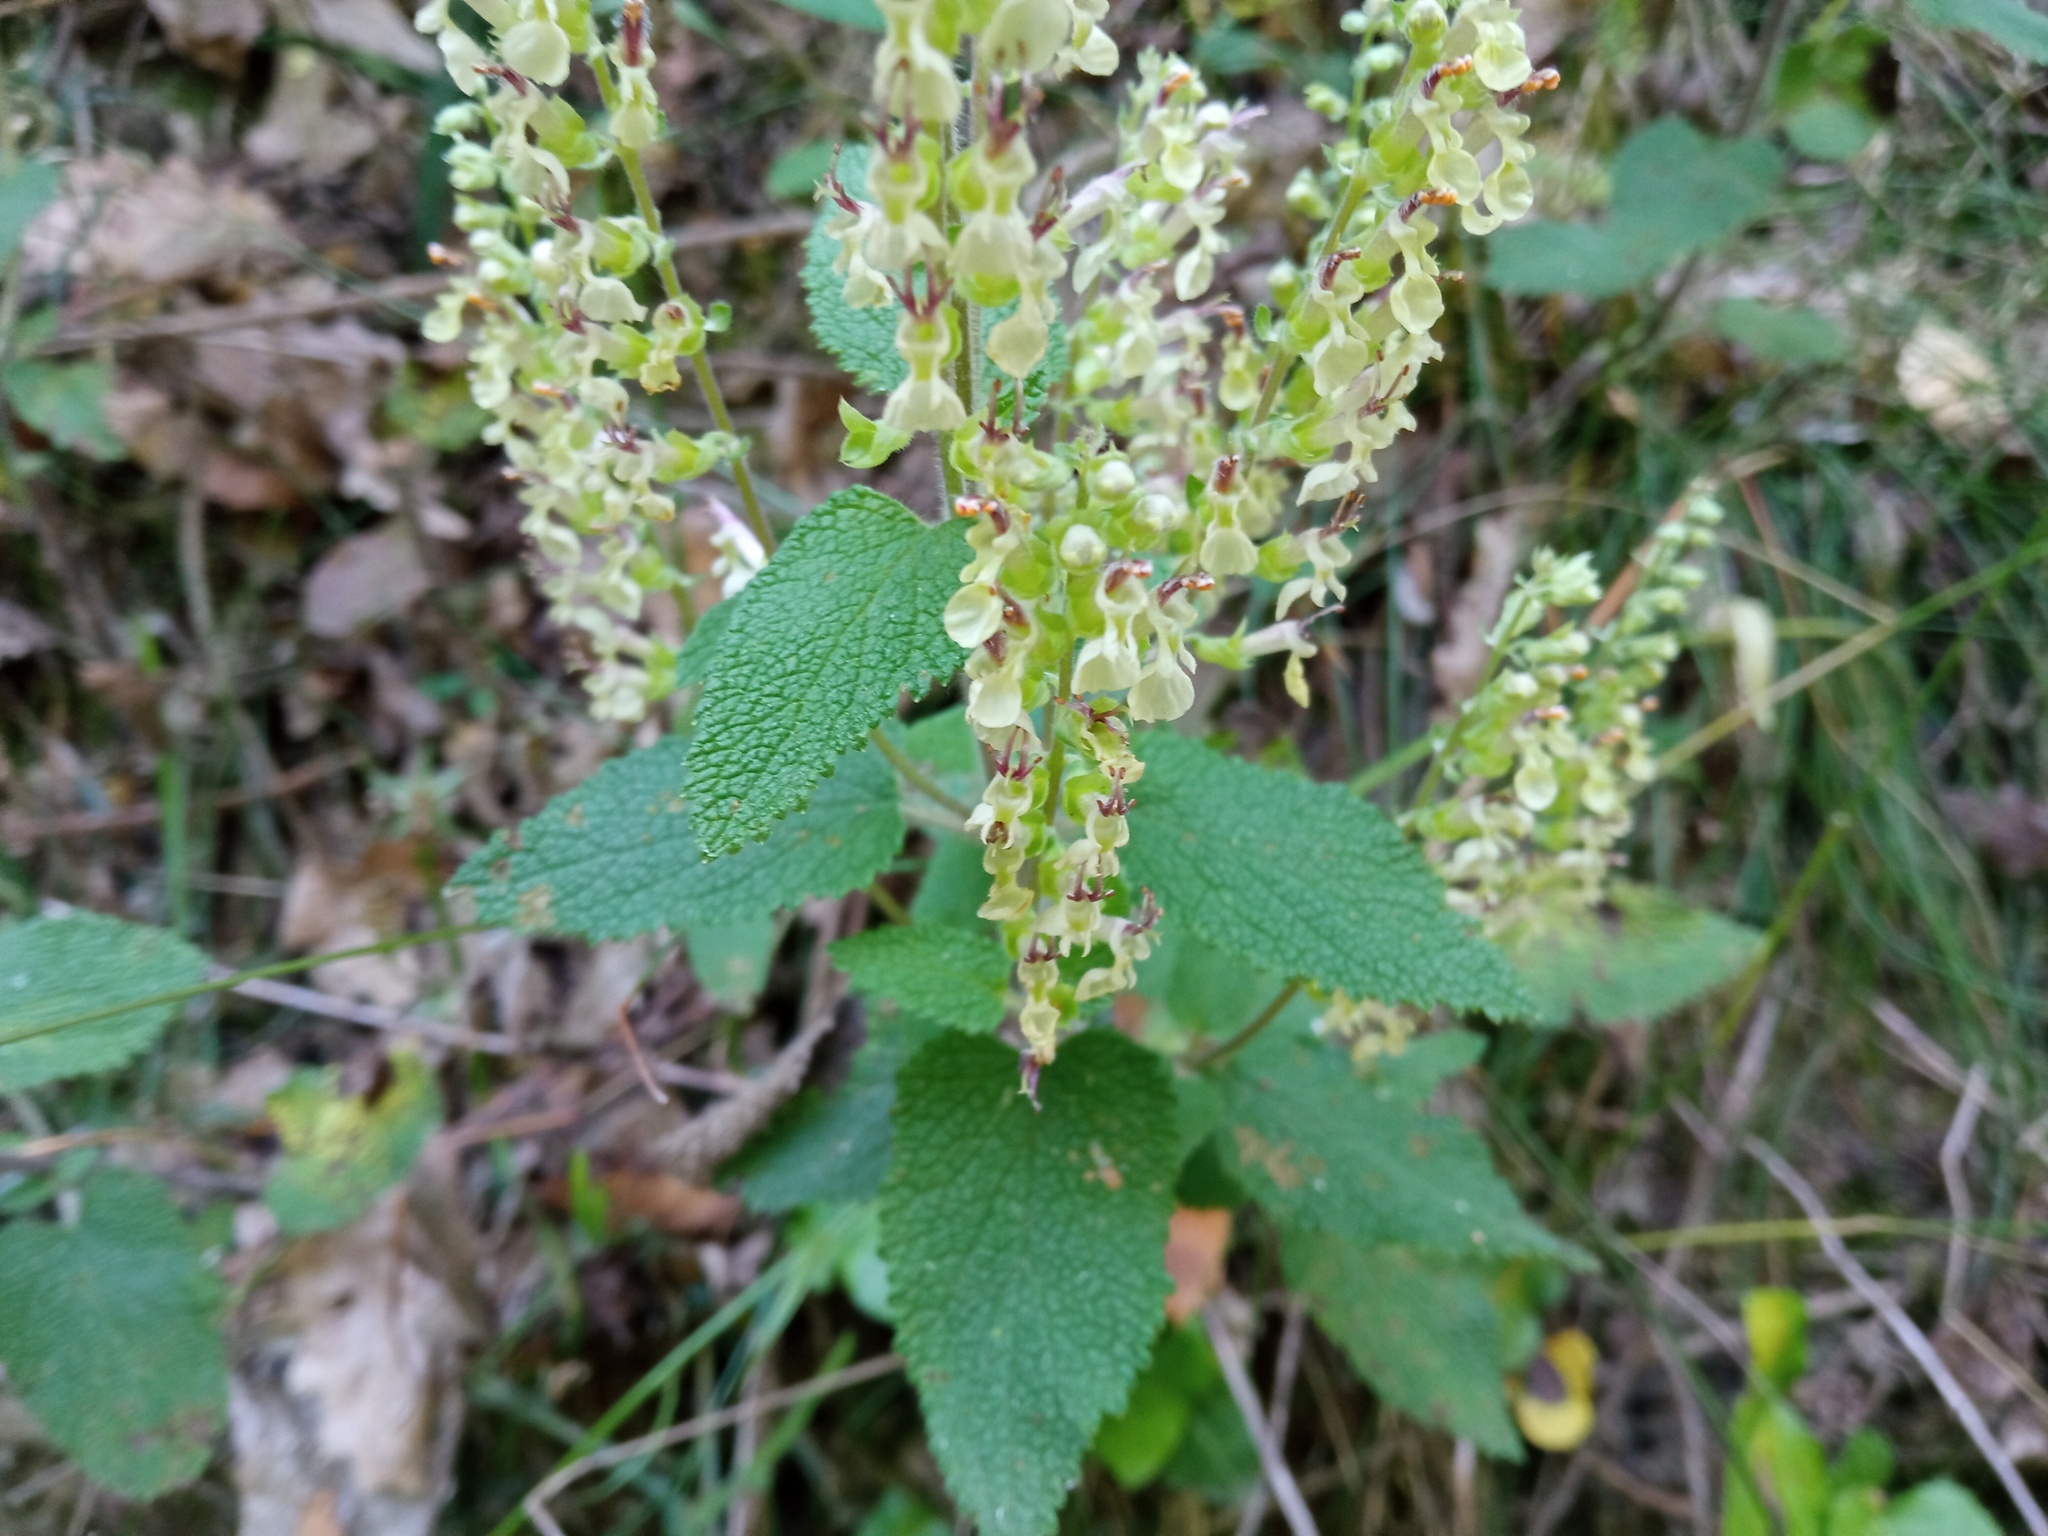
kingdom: Plantae
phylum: Tracheophyta
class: Magnoliopsida
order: Lamiales
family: Lamiaceae
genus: Teucrium
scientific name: Teucrium scorodonia
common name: Woodland germander
